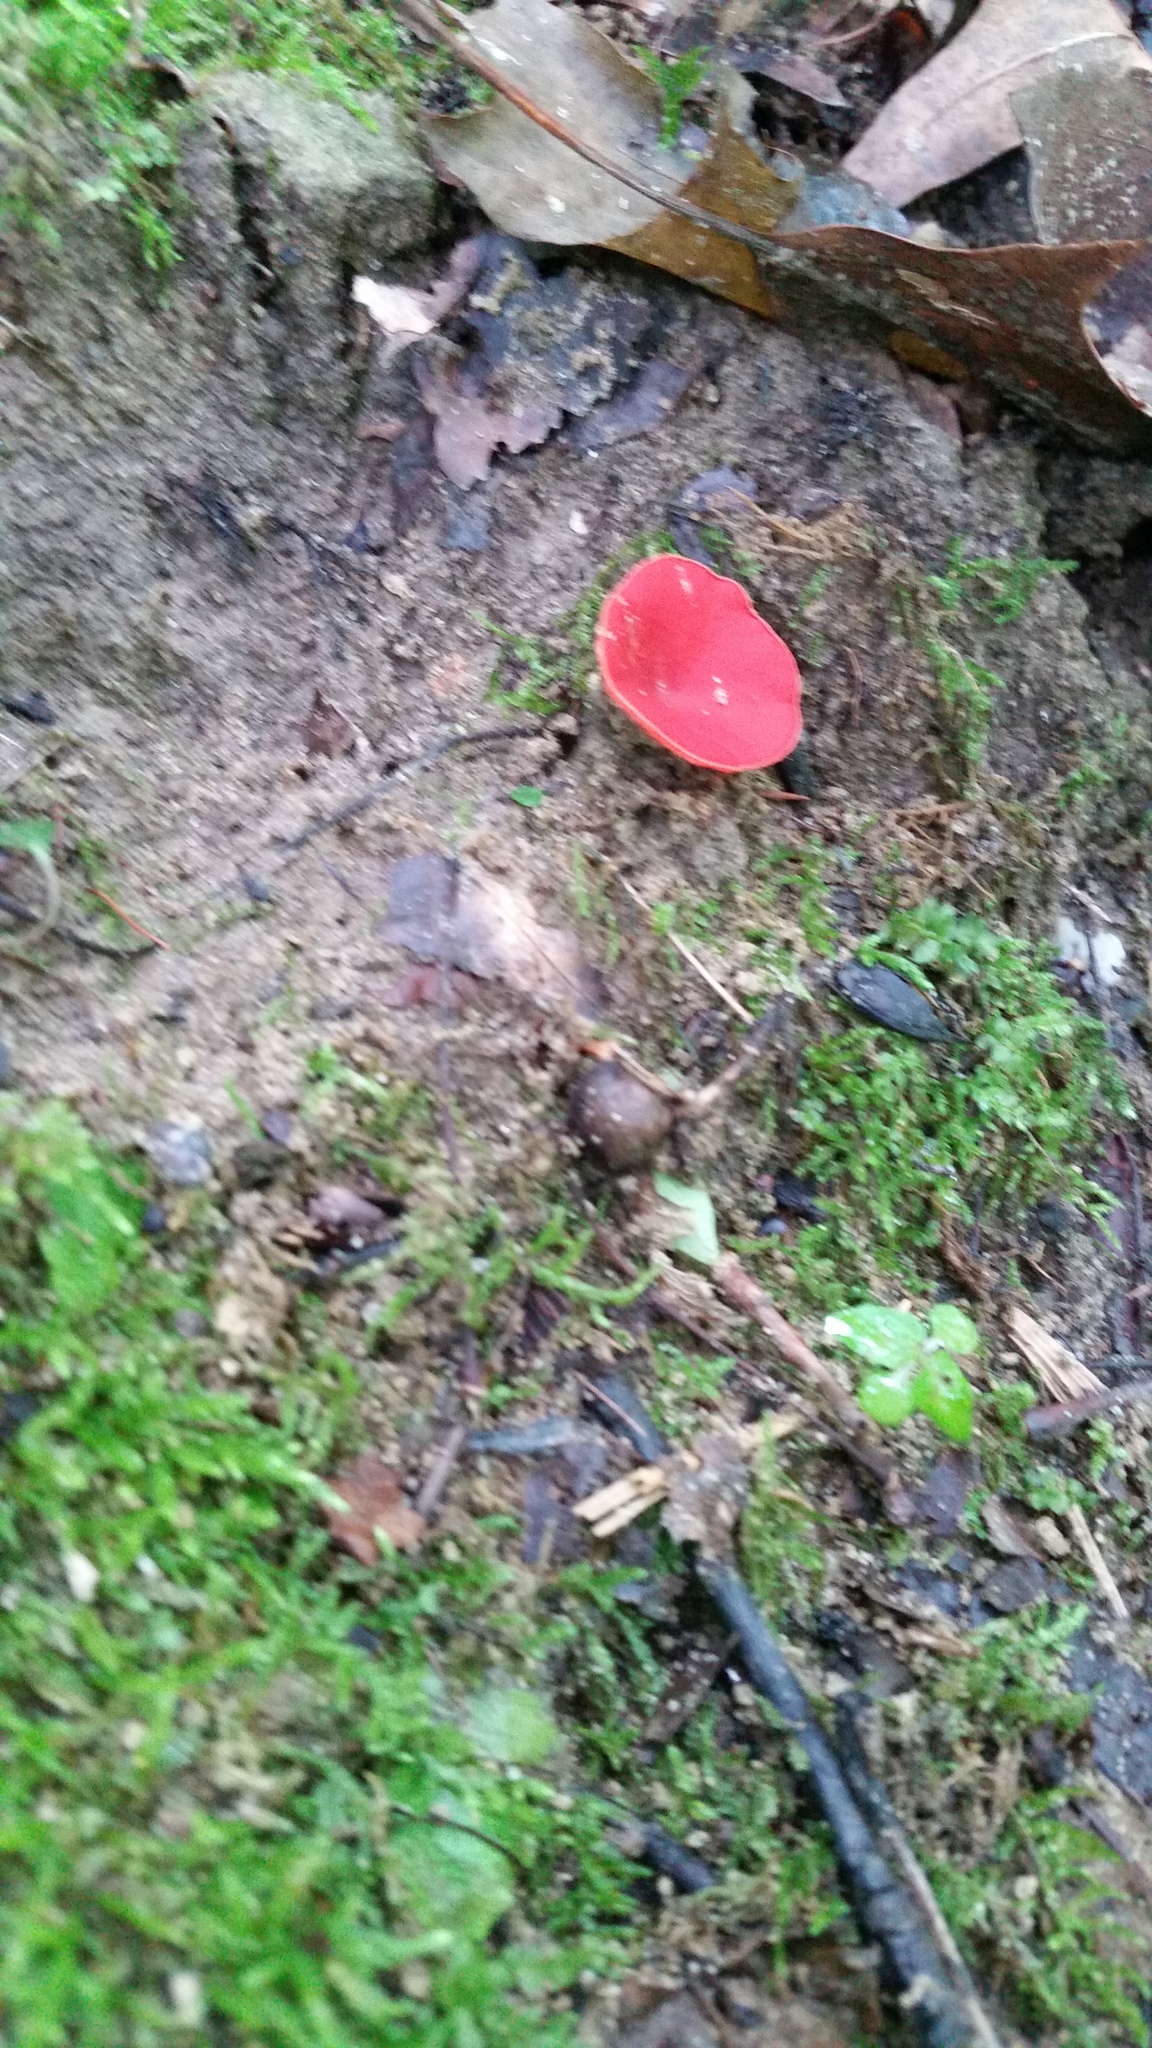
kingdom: Fungi
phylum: Ascomycota
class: Pezizomycetes
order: Pezizales
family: Sarcoscyphaceae
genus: Sarcoscypha
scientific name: Sarcoscypha occidentalis
